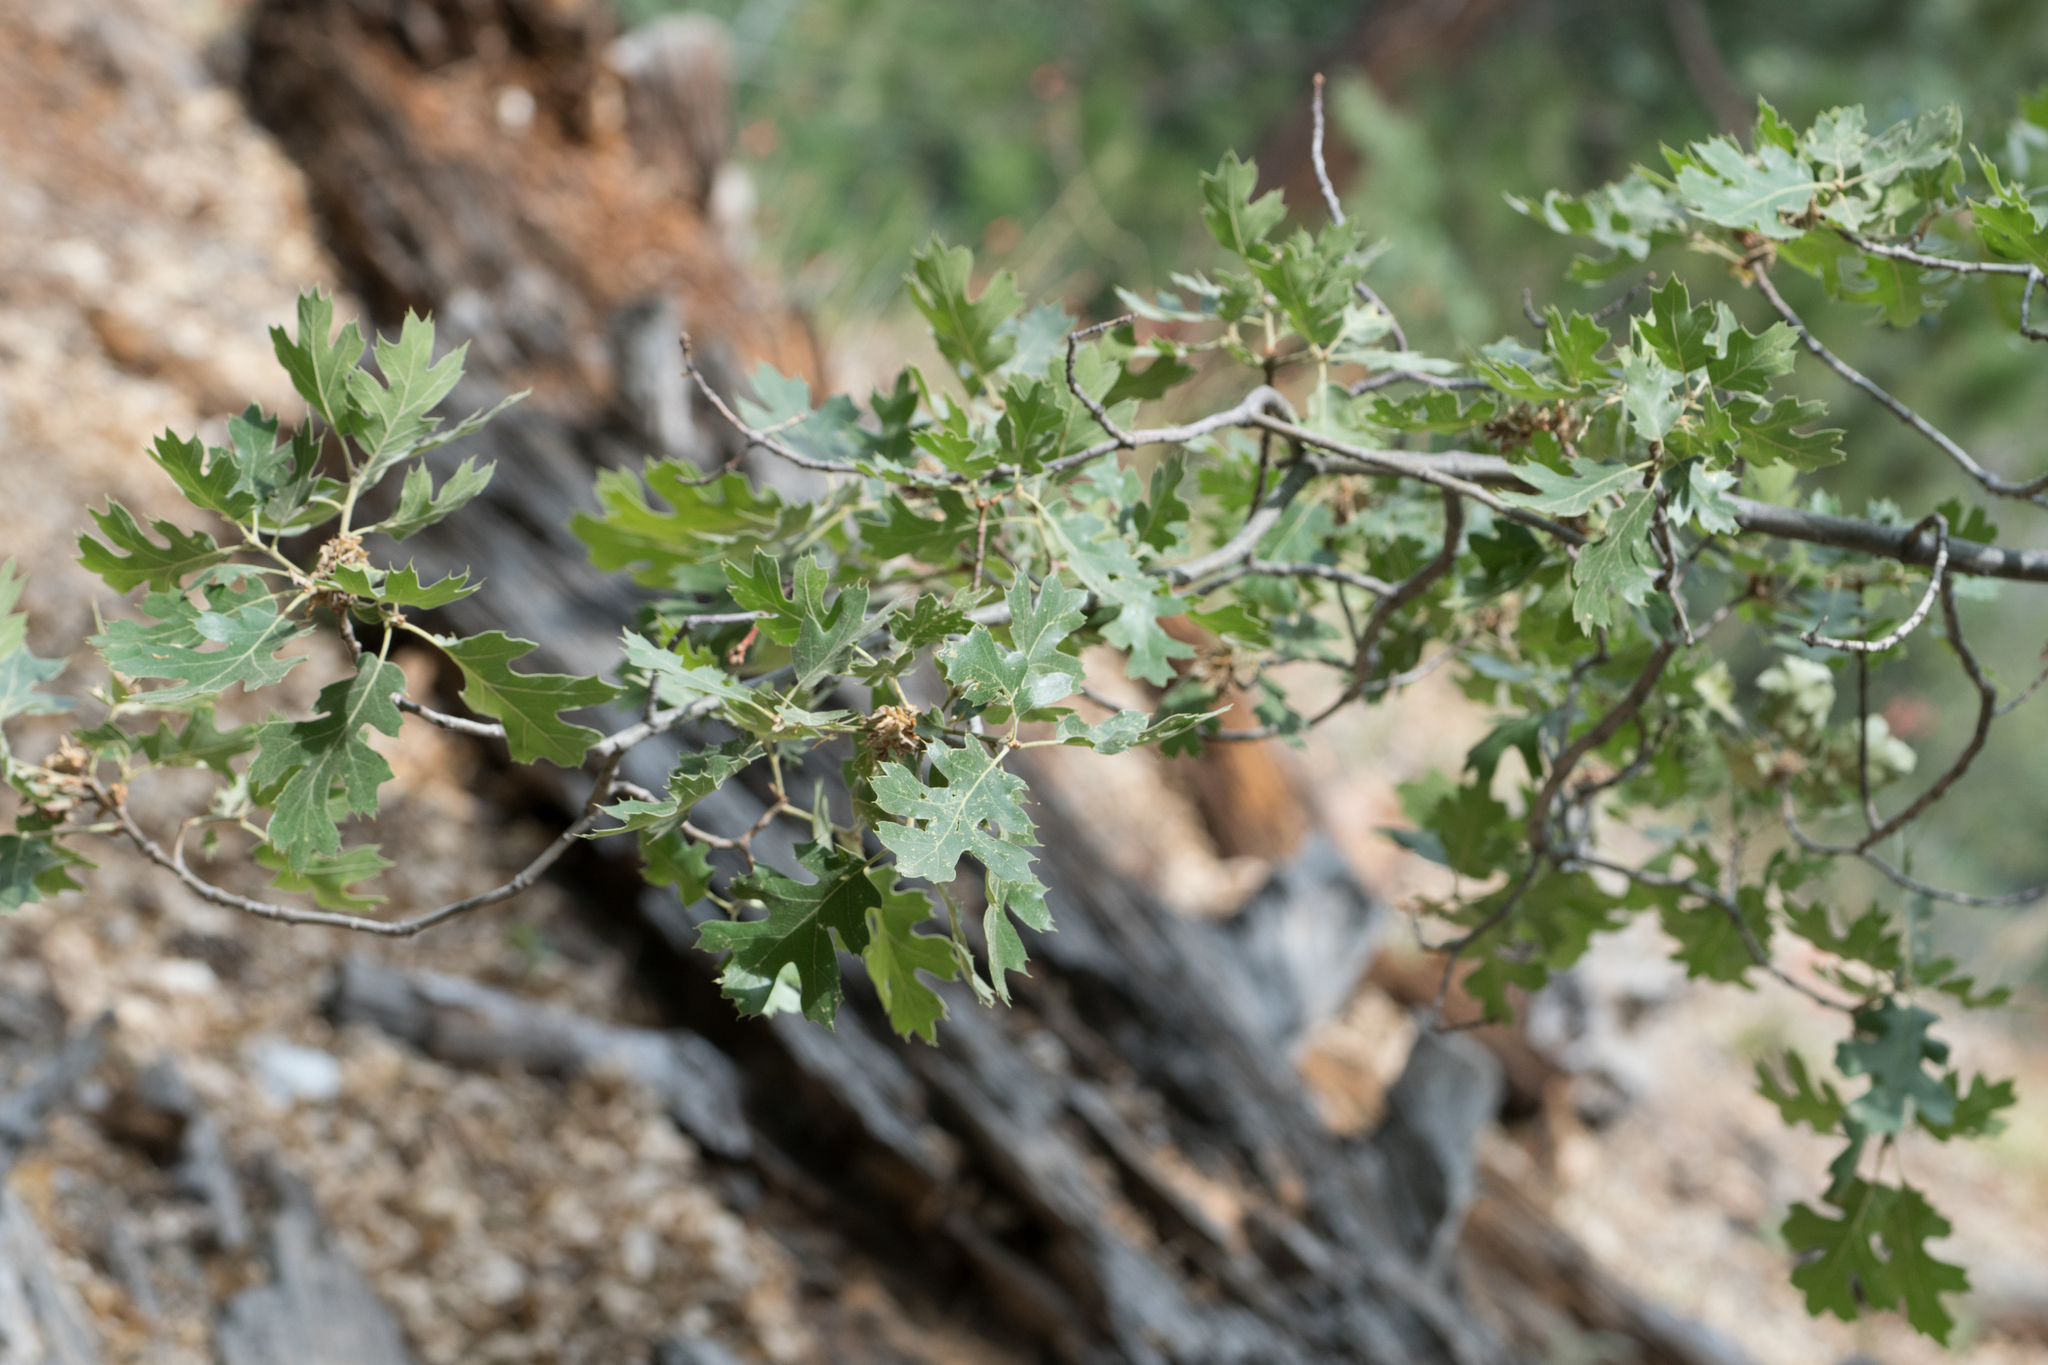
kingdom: Plantae
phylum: Tracheophyta
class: Magnoliopsida
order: Fagales
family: Fagaceae
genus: Quercus
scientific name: Quercus kelloggii
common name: California black oak
